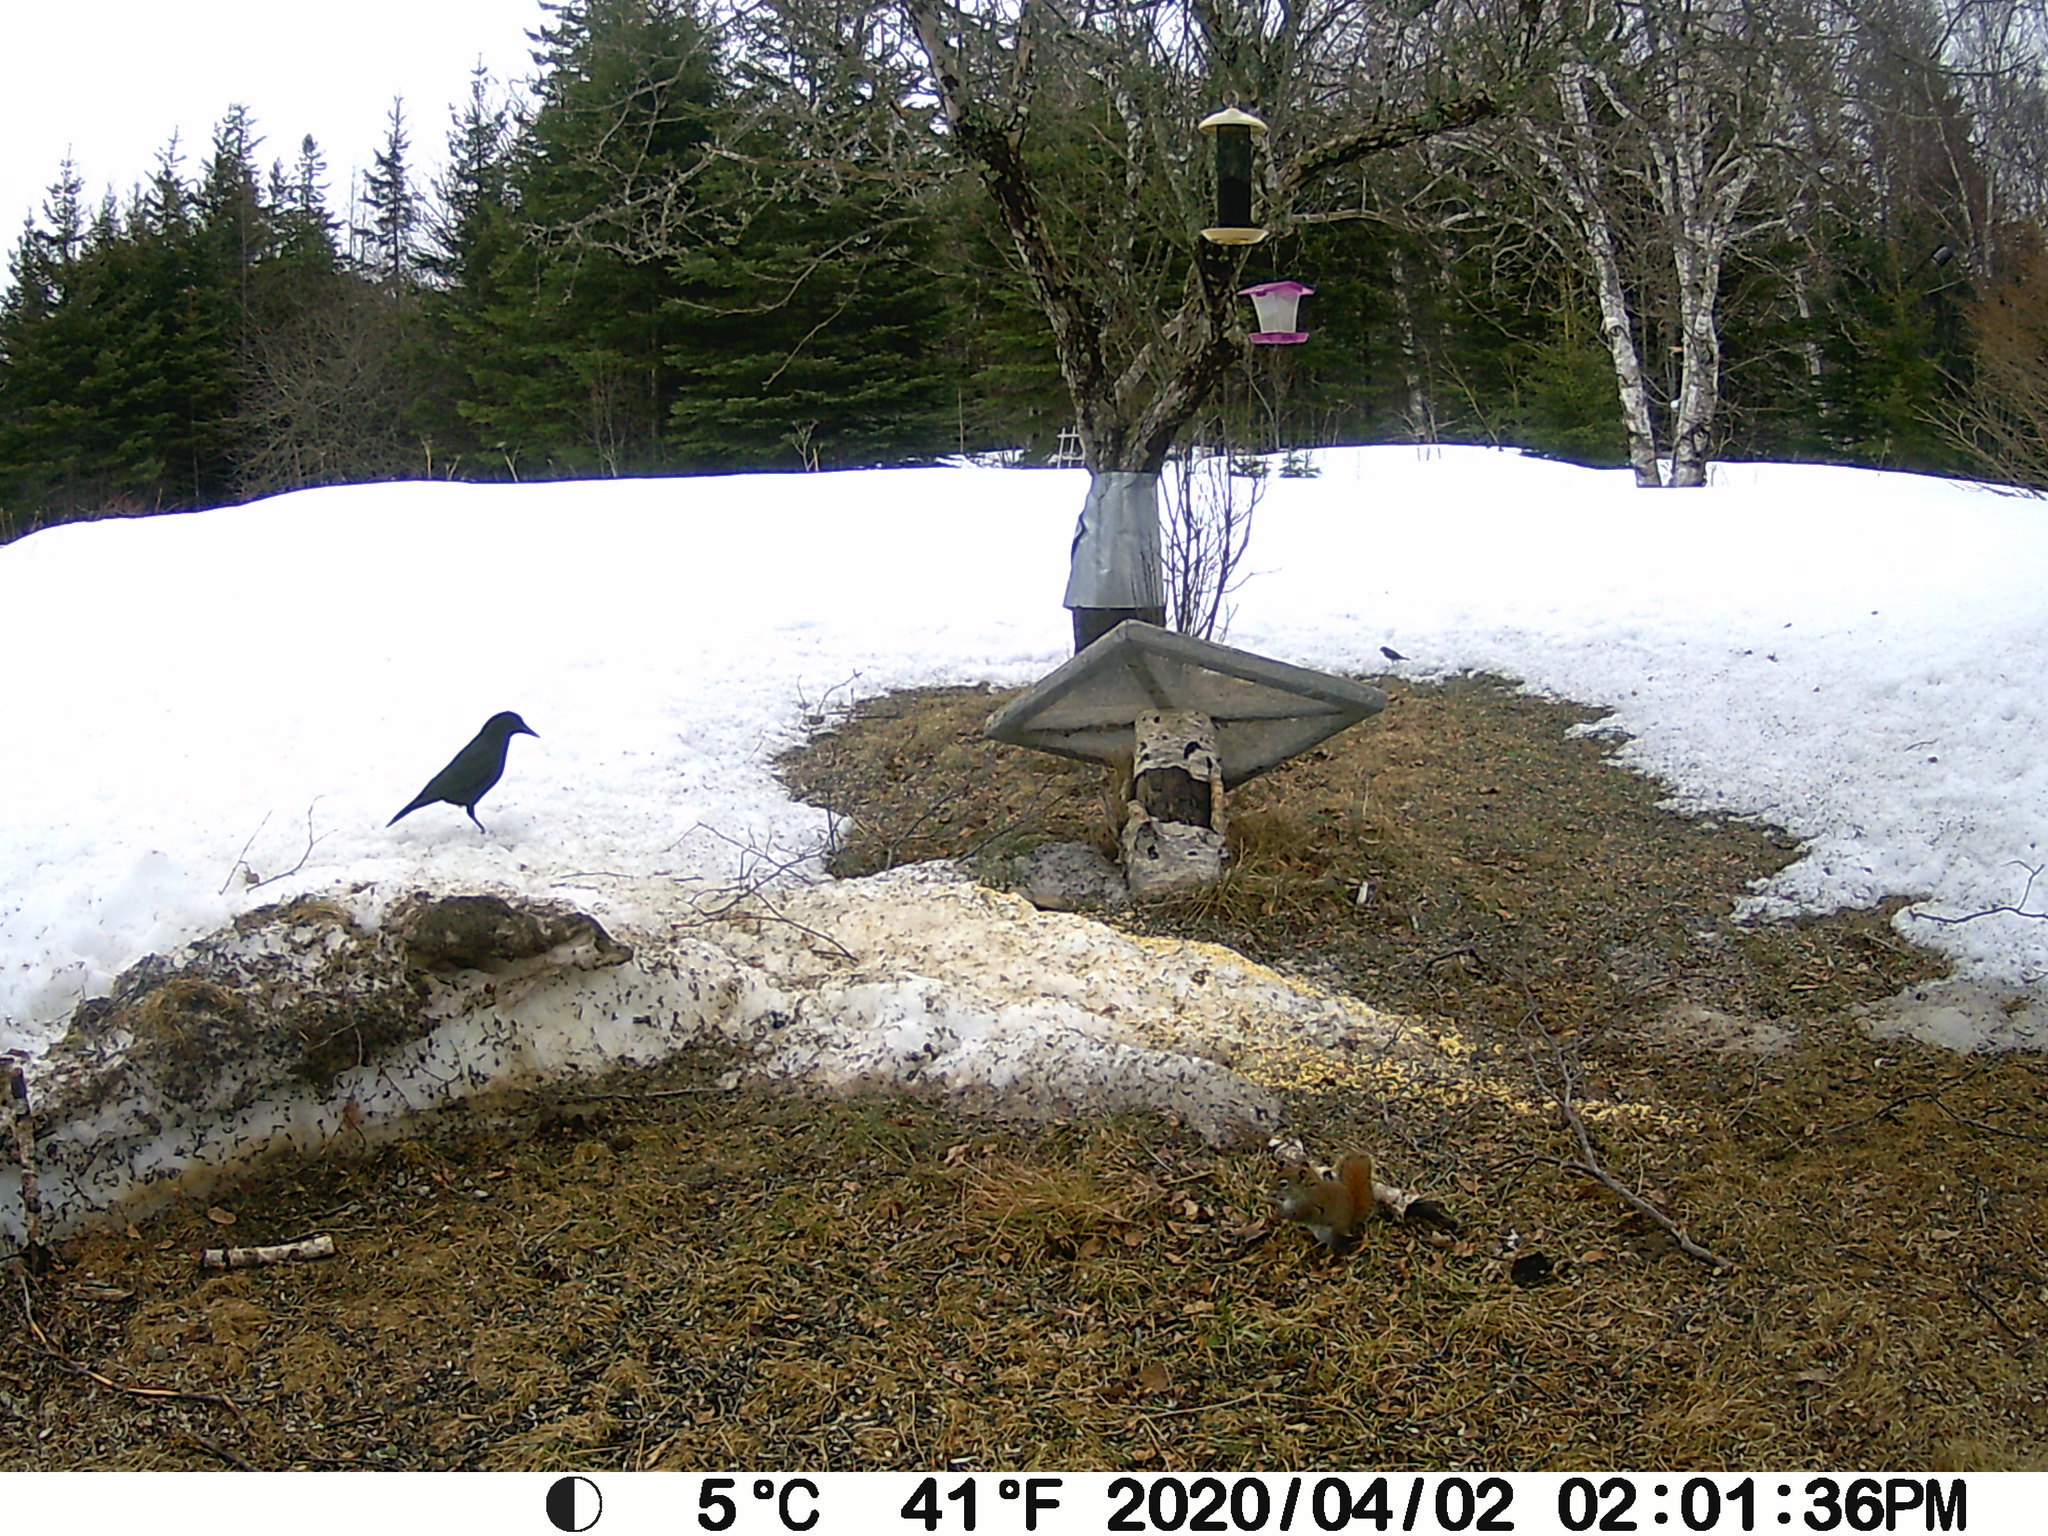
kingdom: Animalia
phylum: Chordata
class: Aves
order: Passeriformes
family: Corvidae
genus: Corvus
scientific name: Corvus brachyrhynchos
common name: American crow
